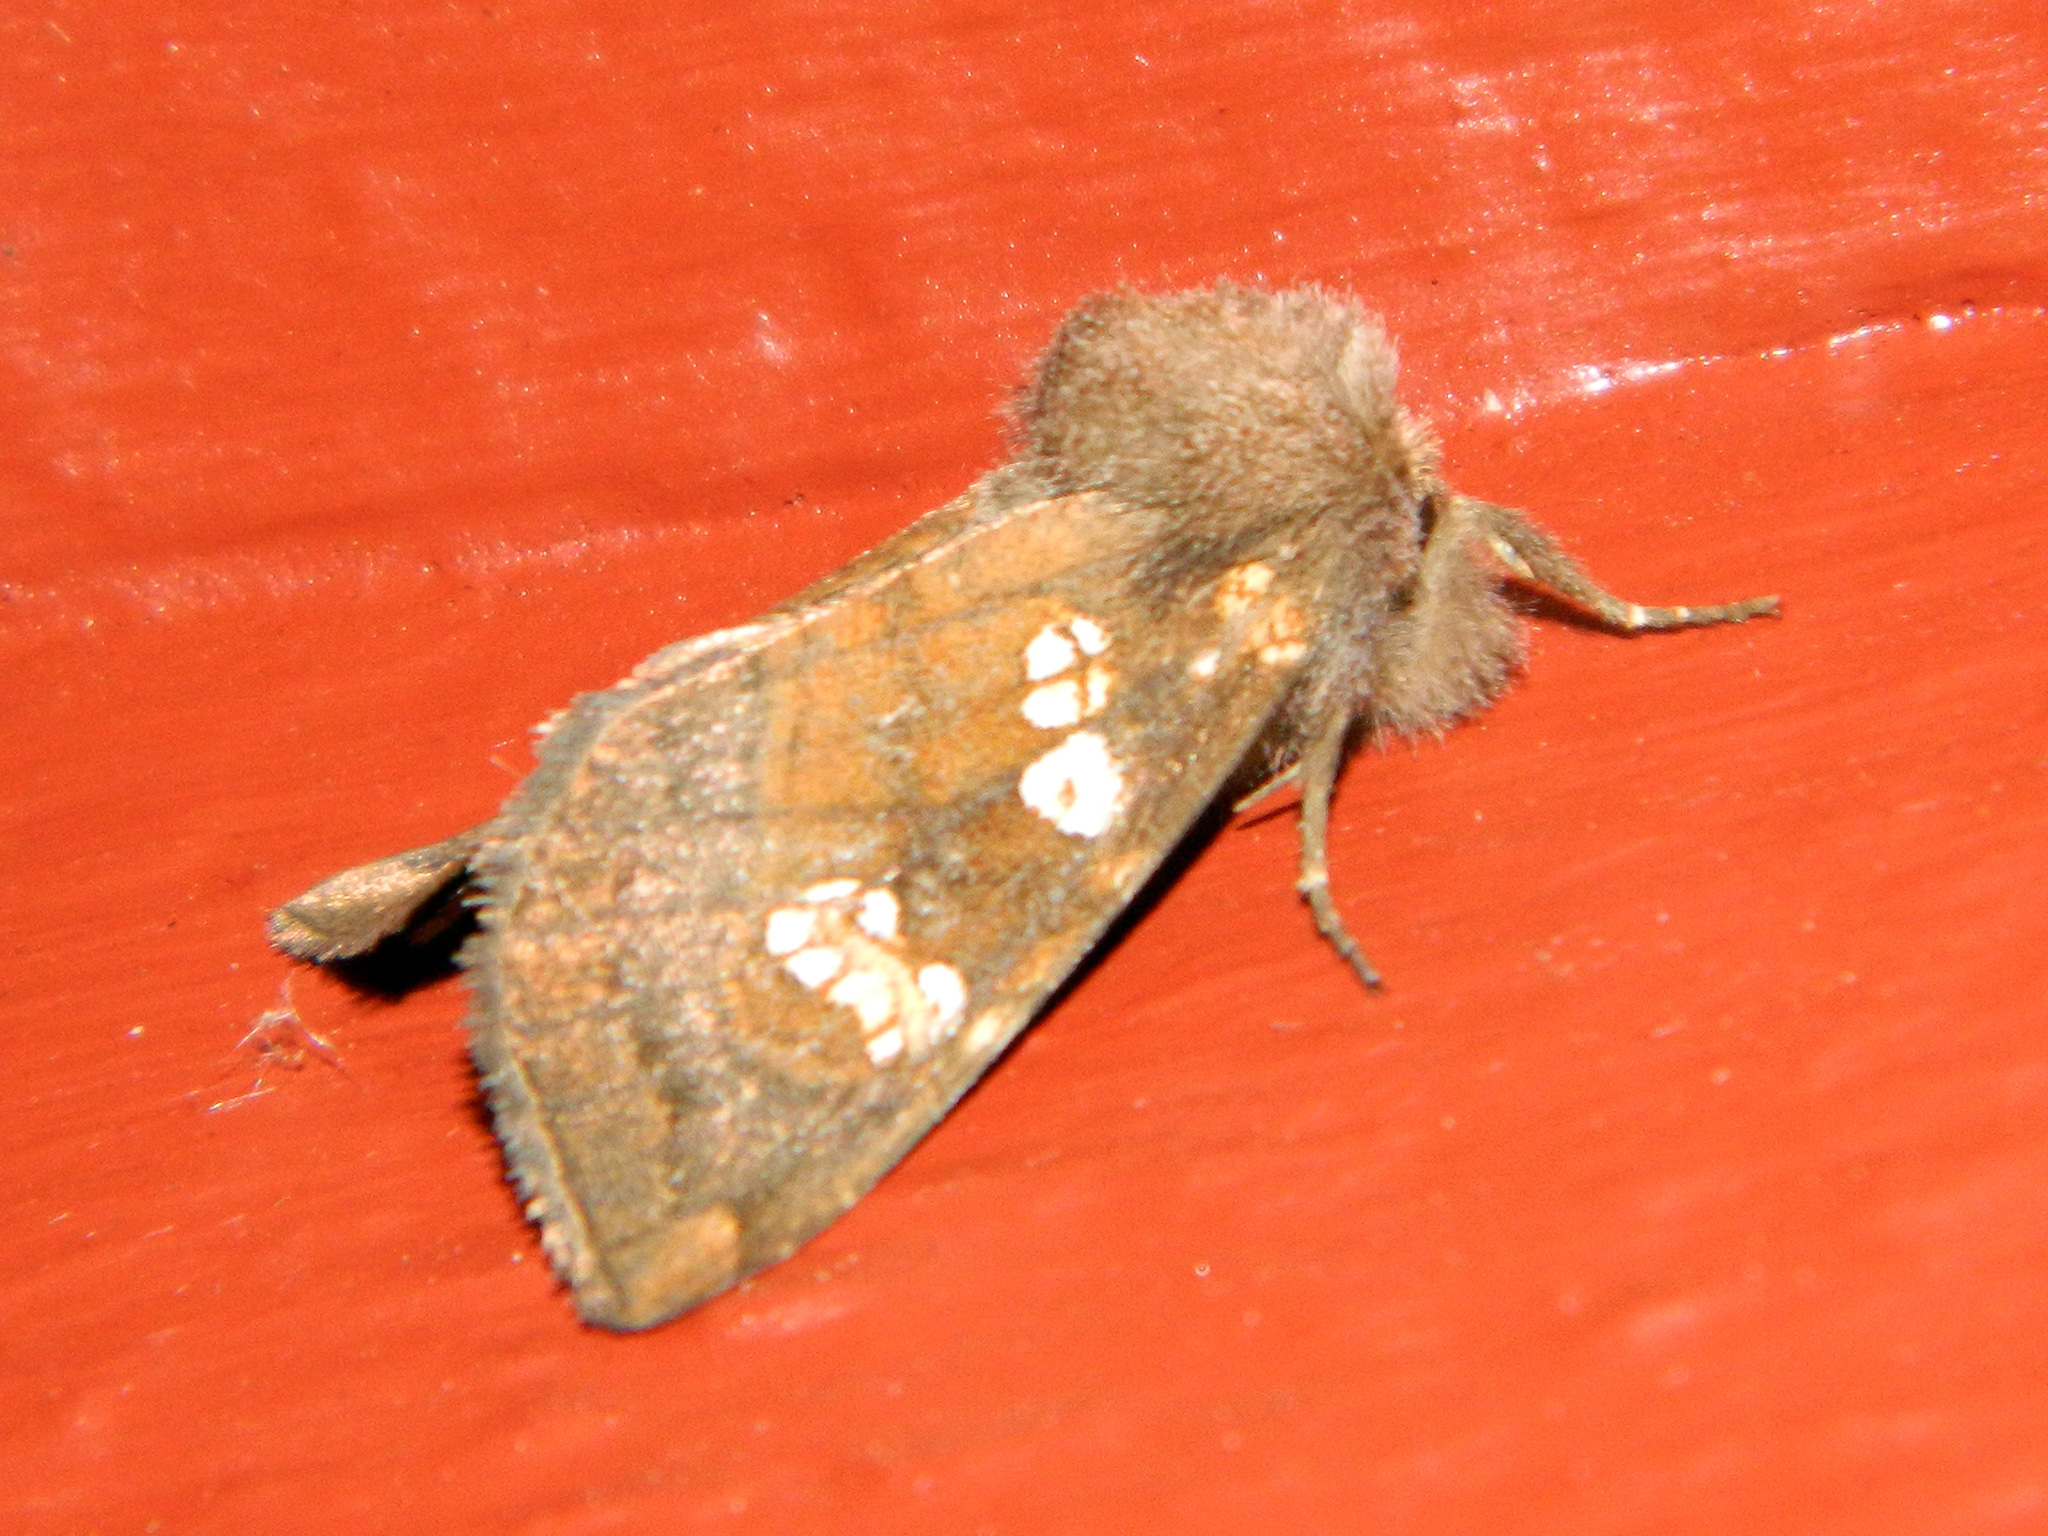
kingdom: Animalia
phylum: Arthropoda
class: Insecta
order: Lepidoptera
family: Noctuidae
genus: Papaipema
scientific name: Papaipema unimoda
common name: Meadow rue borer moth
